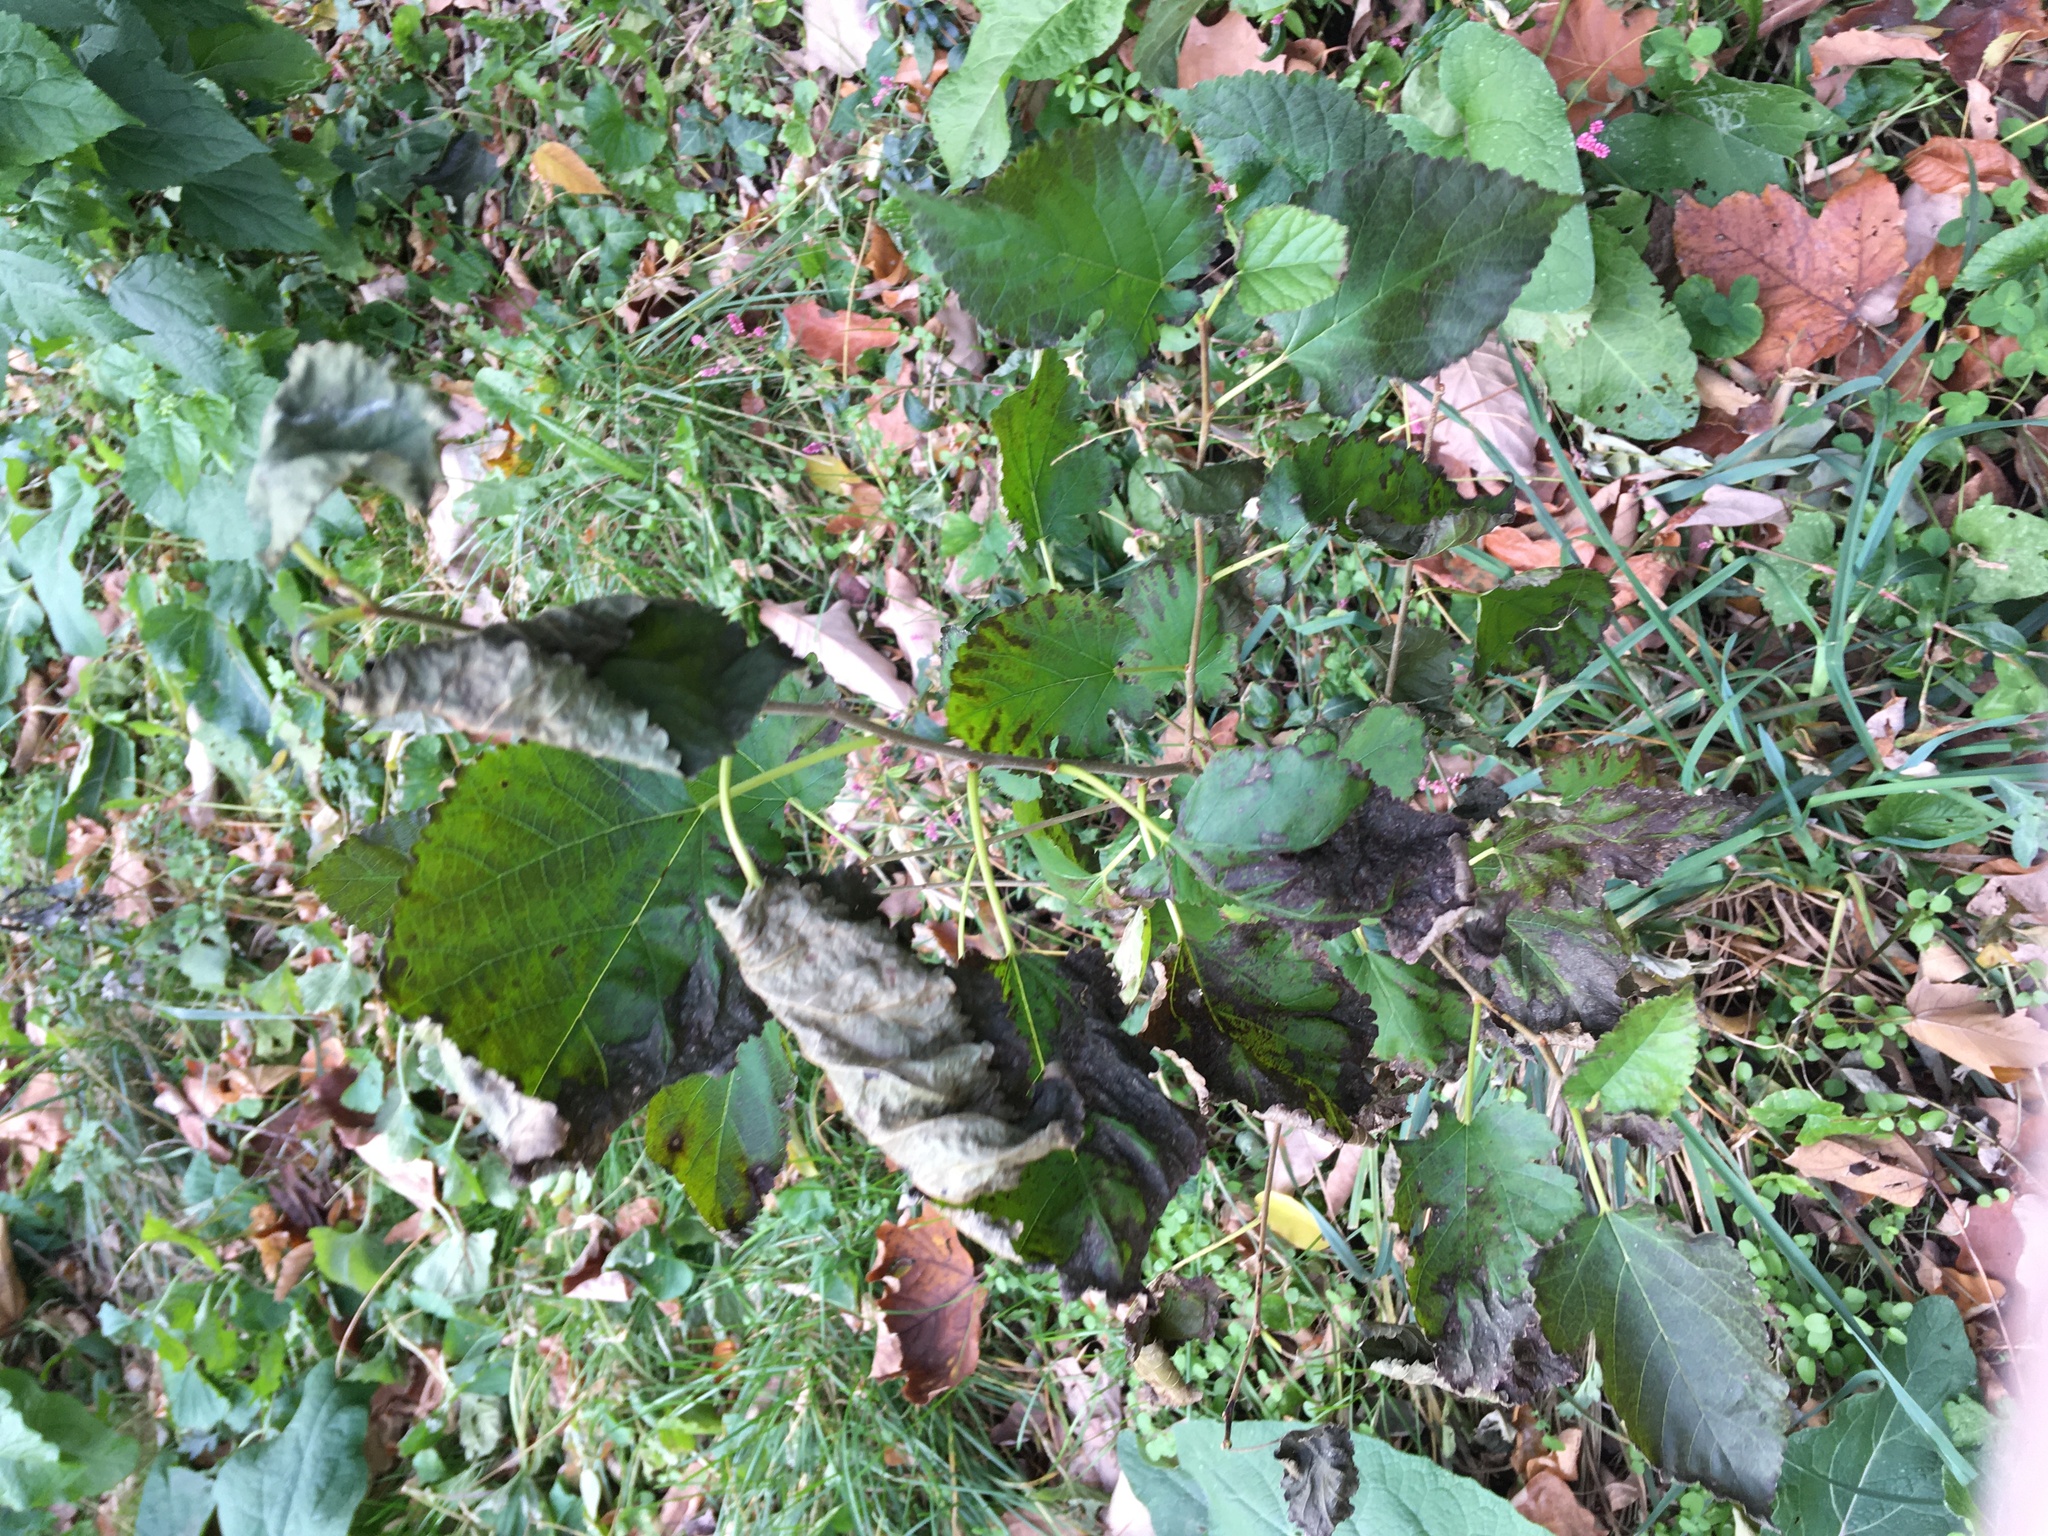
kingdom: Plantae
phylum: Tracheophyta
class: Magnoliopsida
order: Rosales
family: Moraceae
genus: Morus
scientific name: Morus alba
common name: White mulberry
